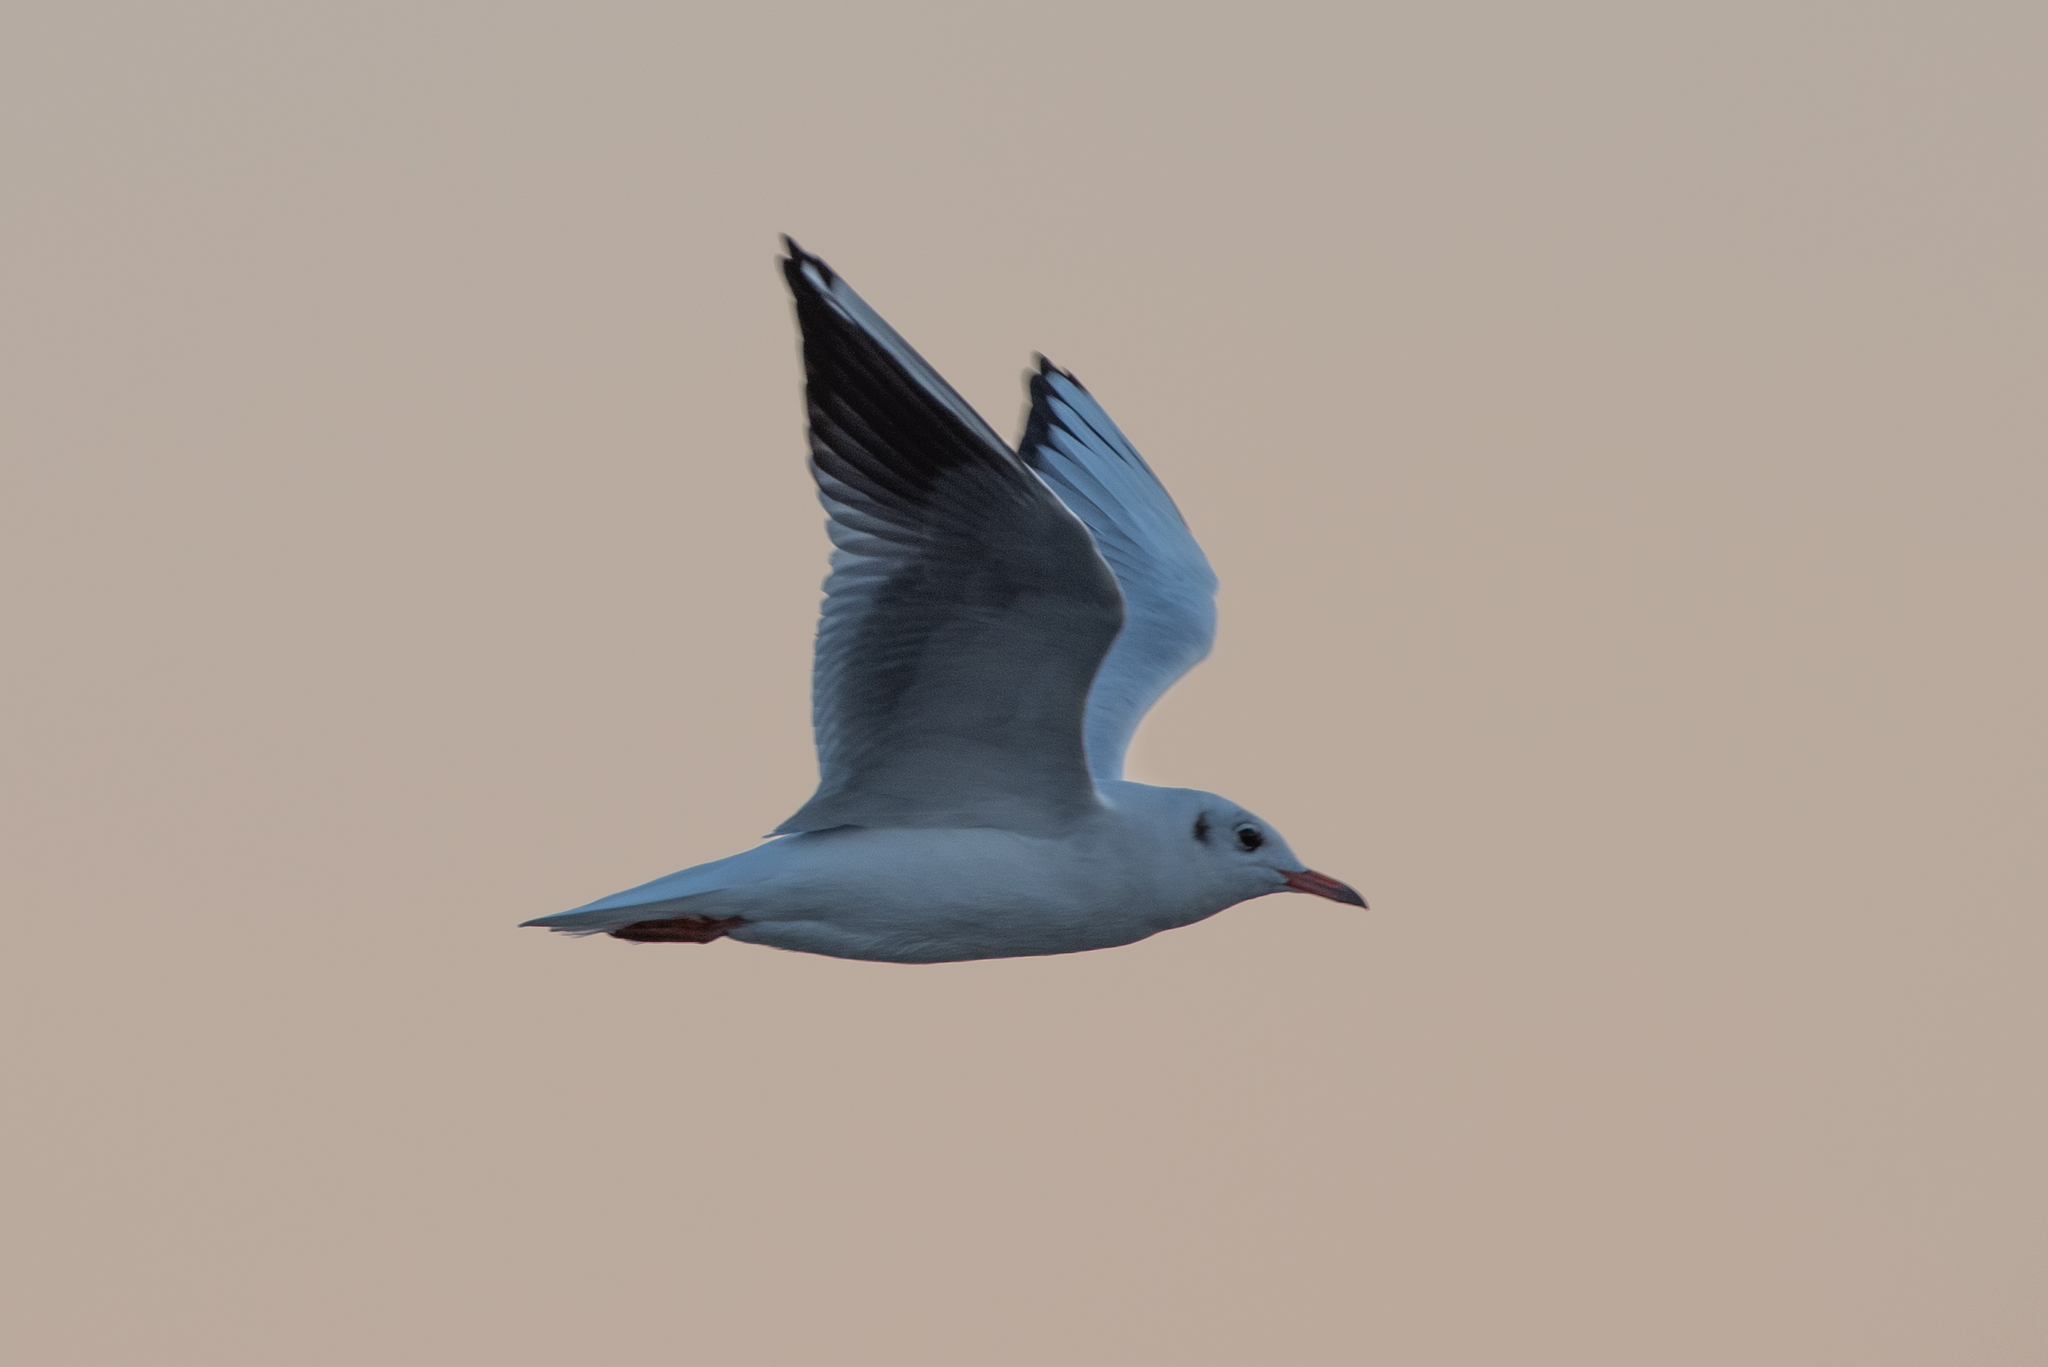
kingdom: Animalia
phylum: Chordata
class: Aves
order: Charadriiformes
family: Laridae
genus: Chroicocephalus
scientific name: Chroicocephalus ridibundus
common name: Black-headed gull
